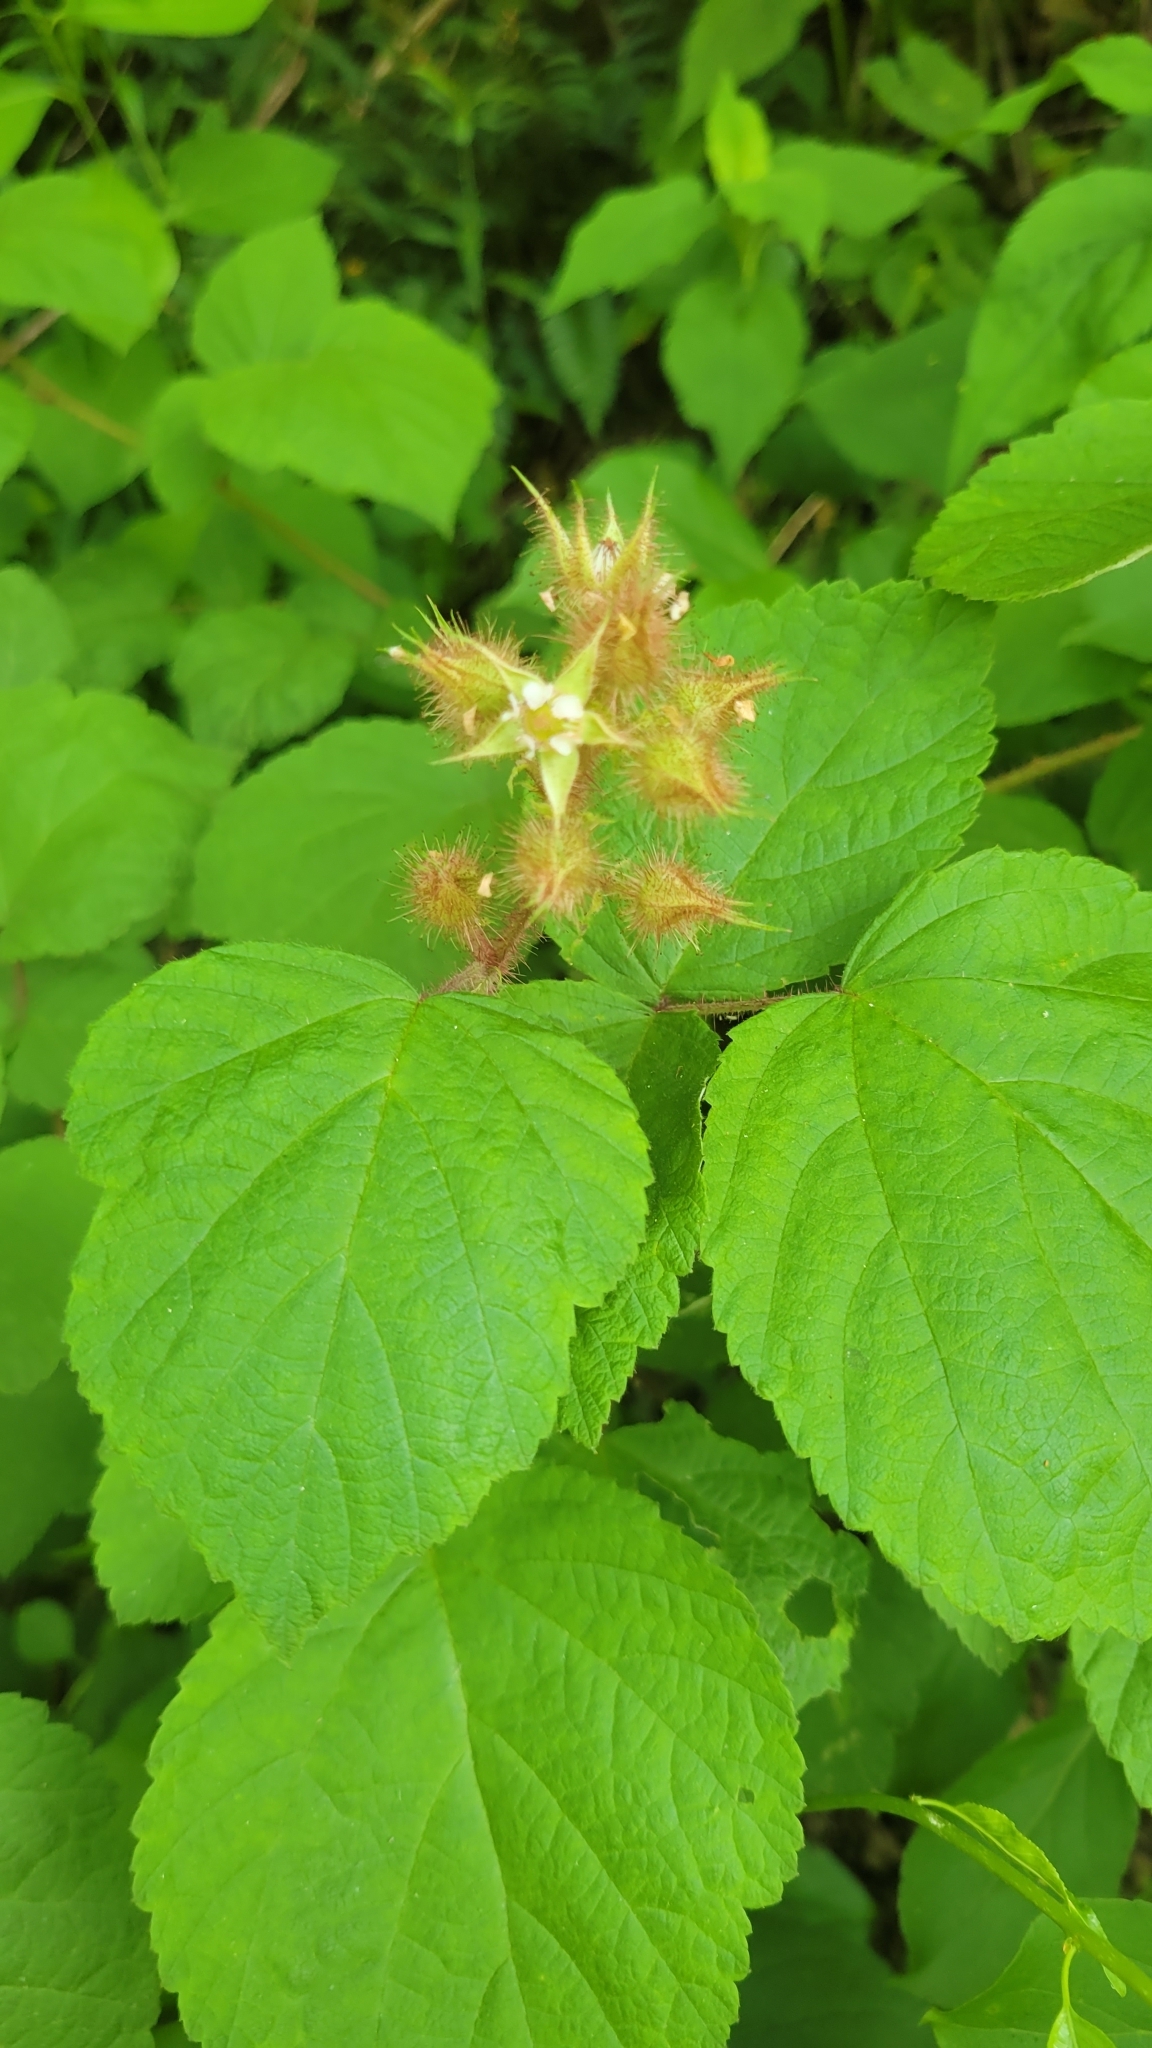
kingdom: Plantae
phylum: Tracheophyta
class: Magnoliopsida
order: Rosales
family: Rosaceae
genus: Rubus
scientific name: Rubus phoenicolasius
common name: Japanese wineberry
